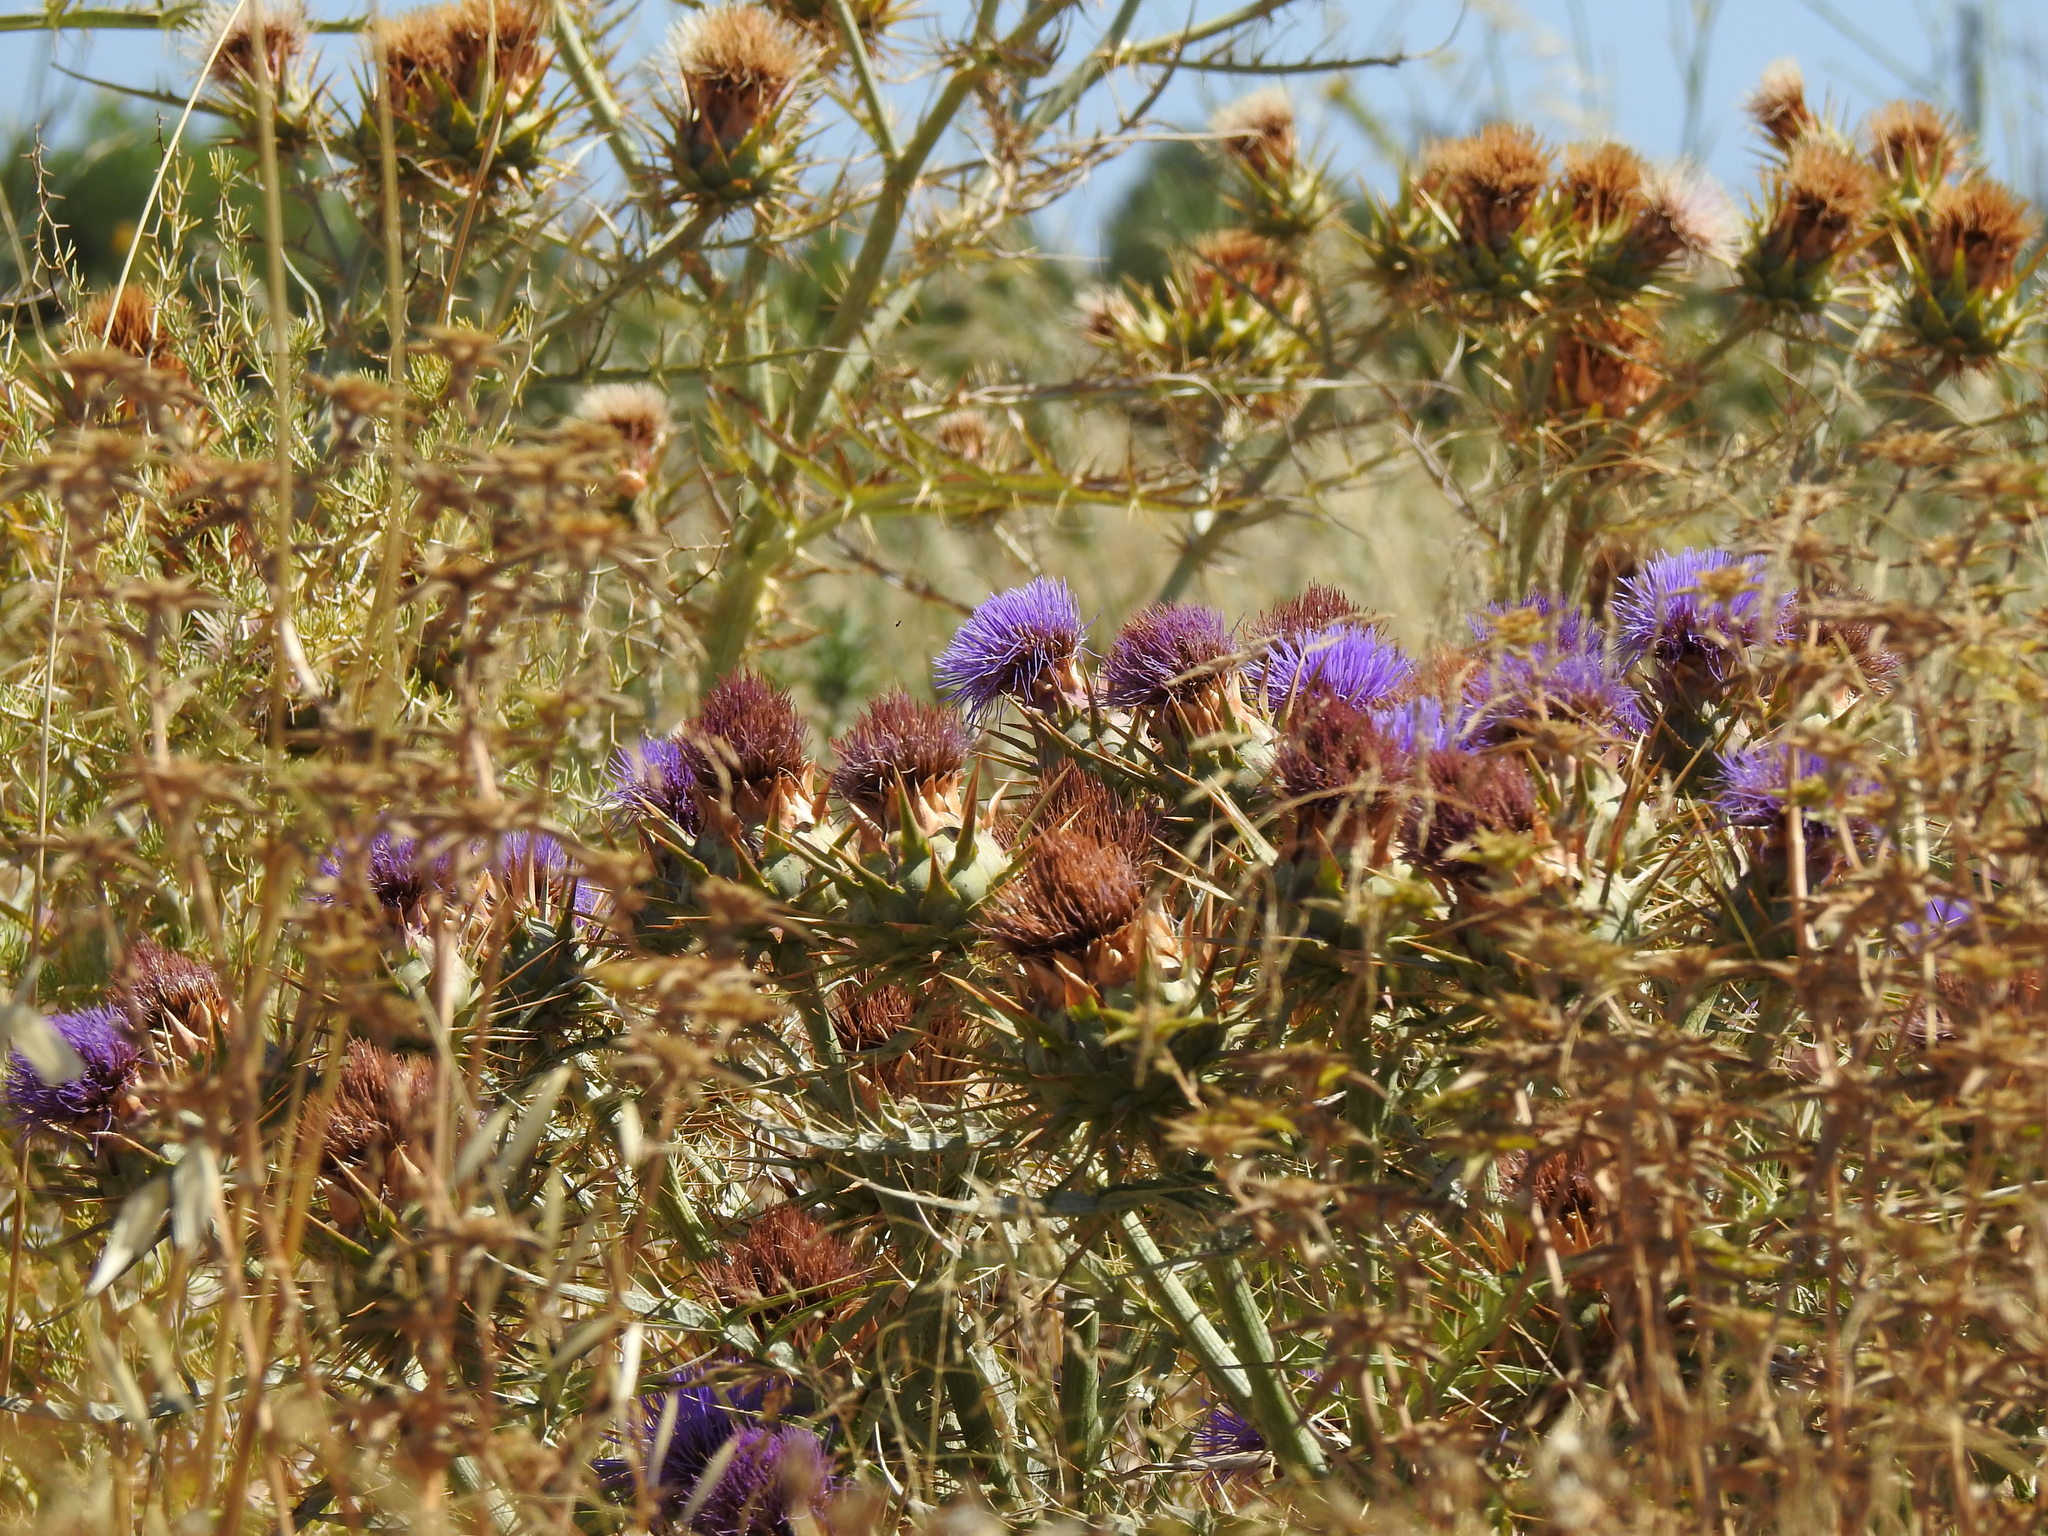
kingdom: Plantae
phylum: Tracheophyta
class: Magnoliopsida
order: Asterales
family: Asteraceae
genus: Cynara
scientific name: Cynara cardunculus
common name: Globe artichoke
